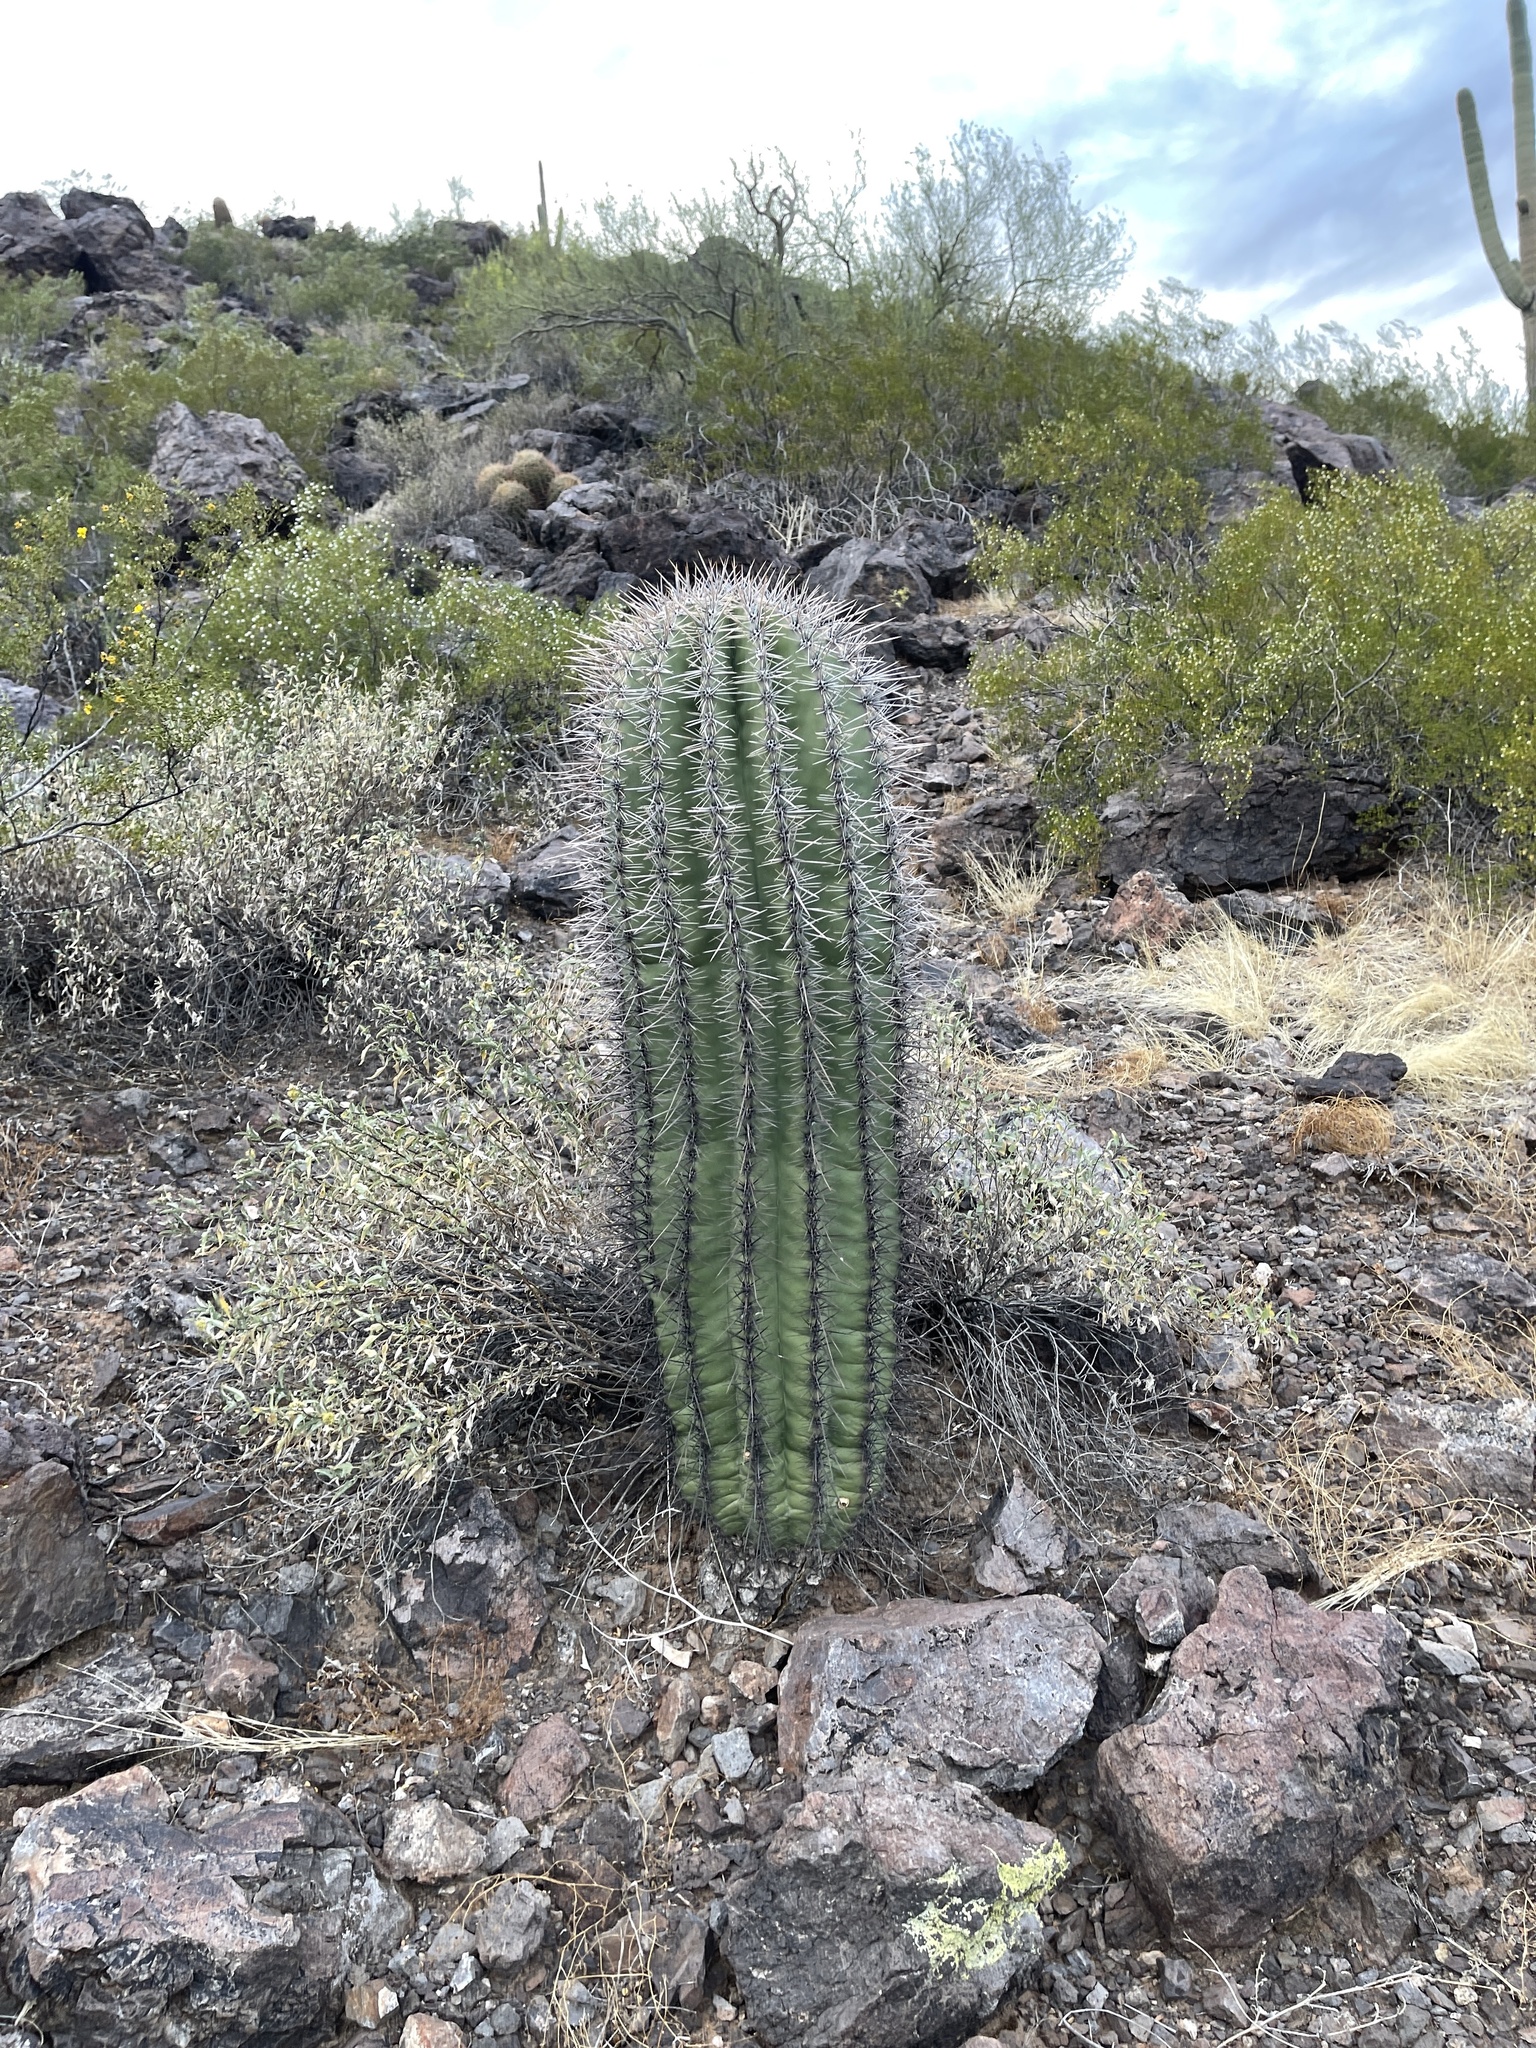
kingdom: Plantae
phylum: Tracheophyta
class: Magnoliopsida
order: Caryophyllales
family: Cactaceae
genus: Carnegiea
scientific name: Carnegiea gigantea
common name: Saguaro
